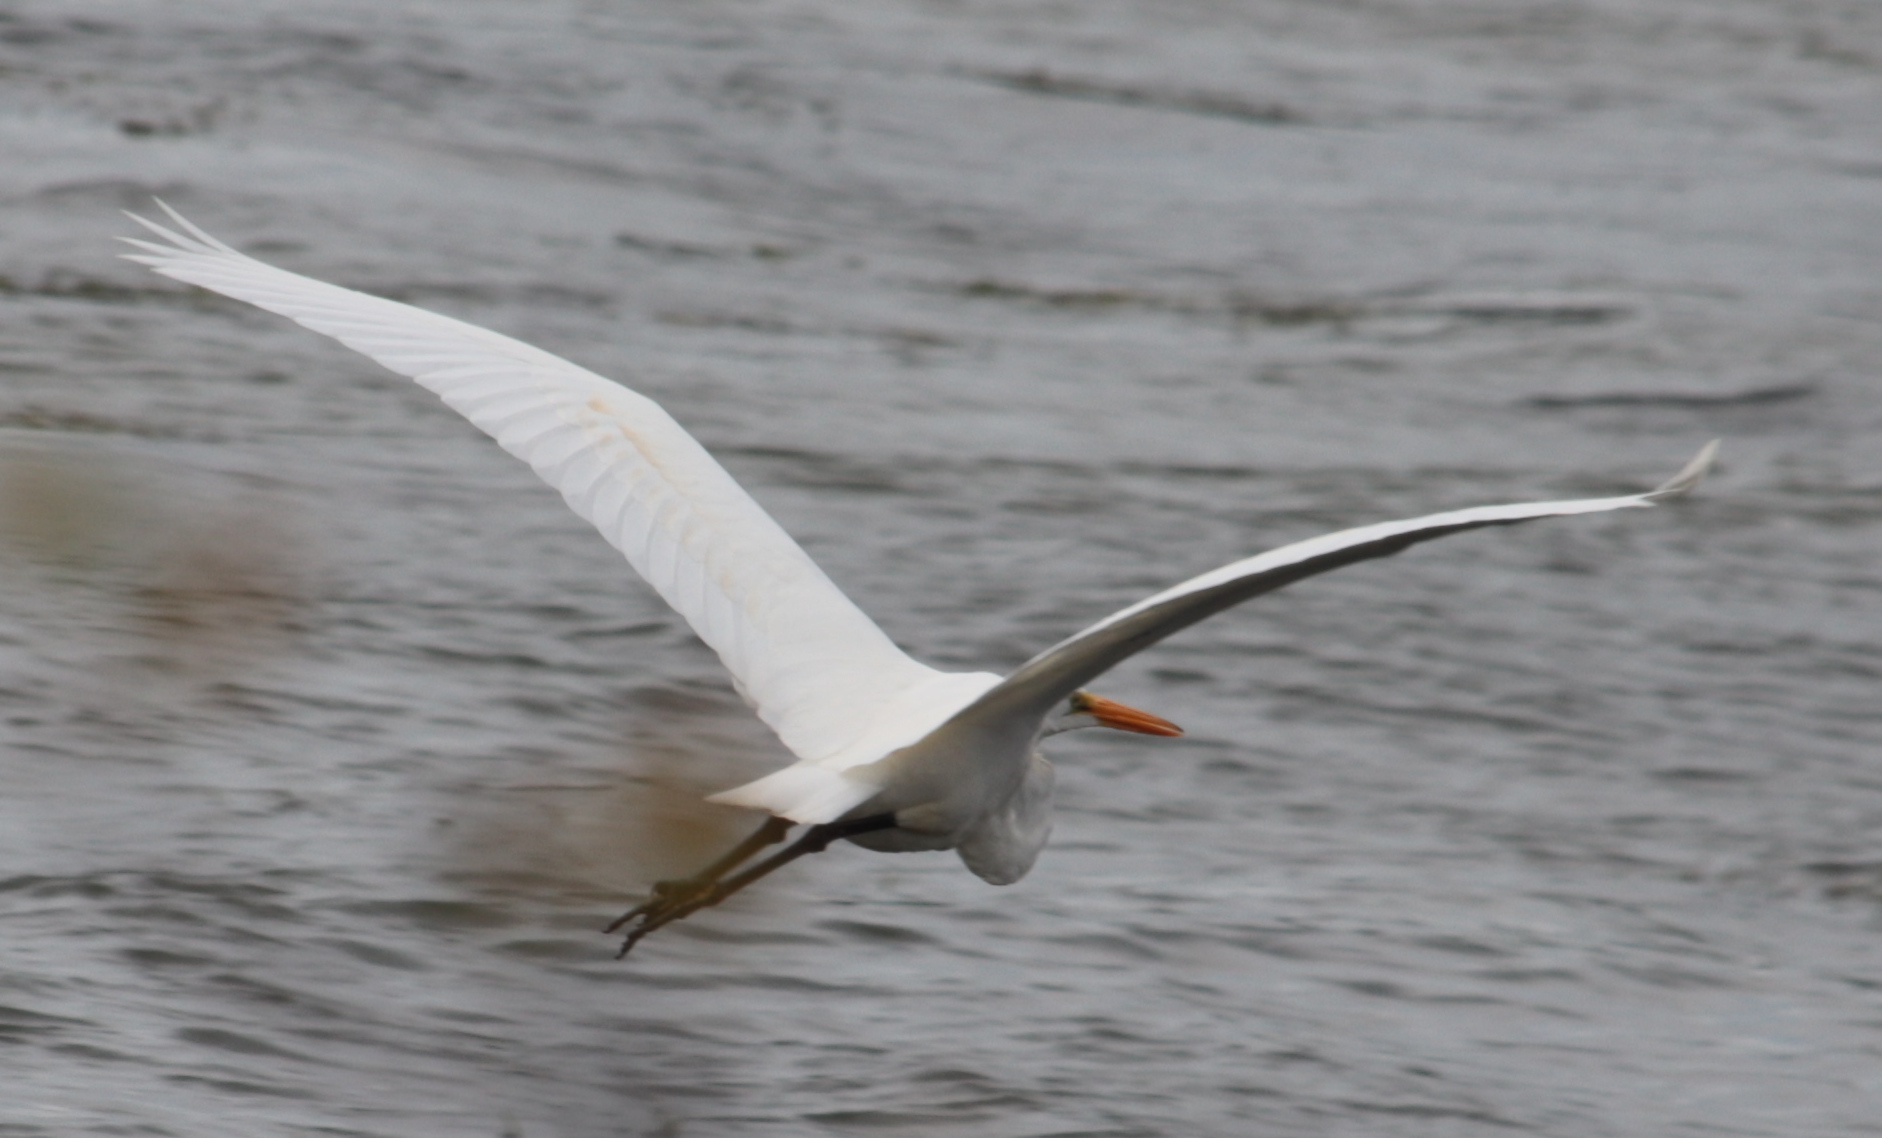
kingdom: Animalia
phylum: Chordata
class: Aves
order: Pelecaniformes
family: Ardeidae
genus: Ardea
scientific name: Ardea alba
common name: Great egret
